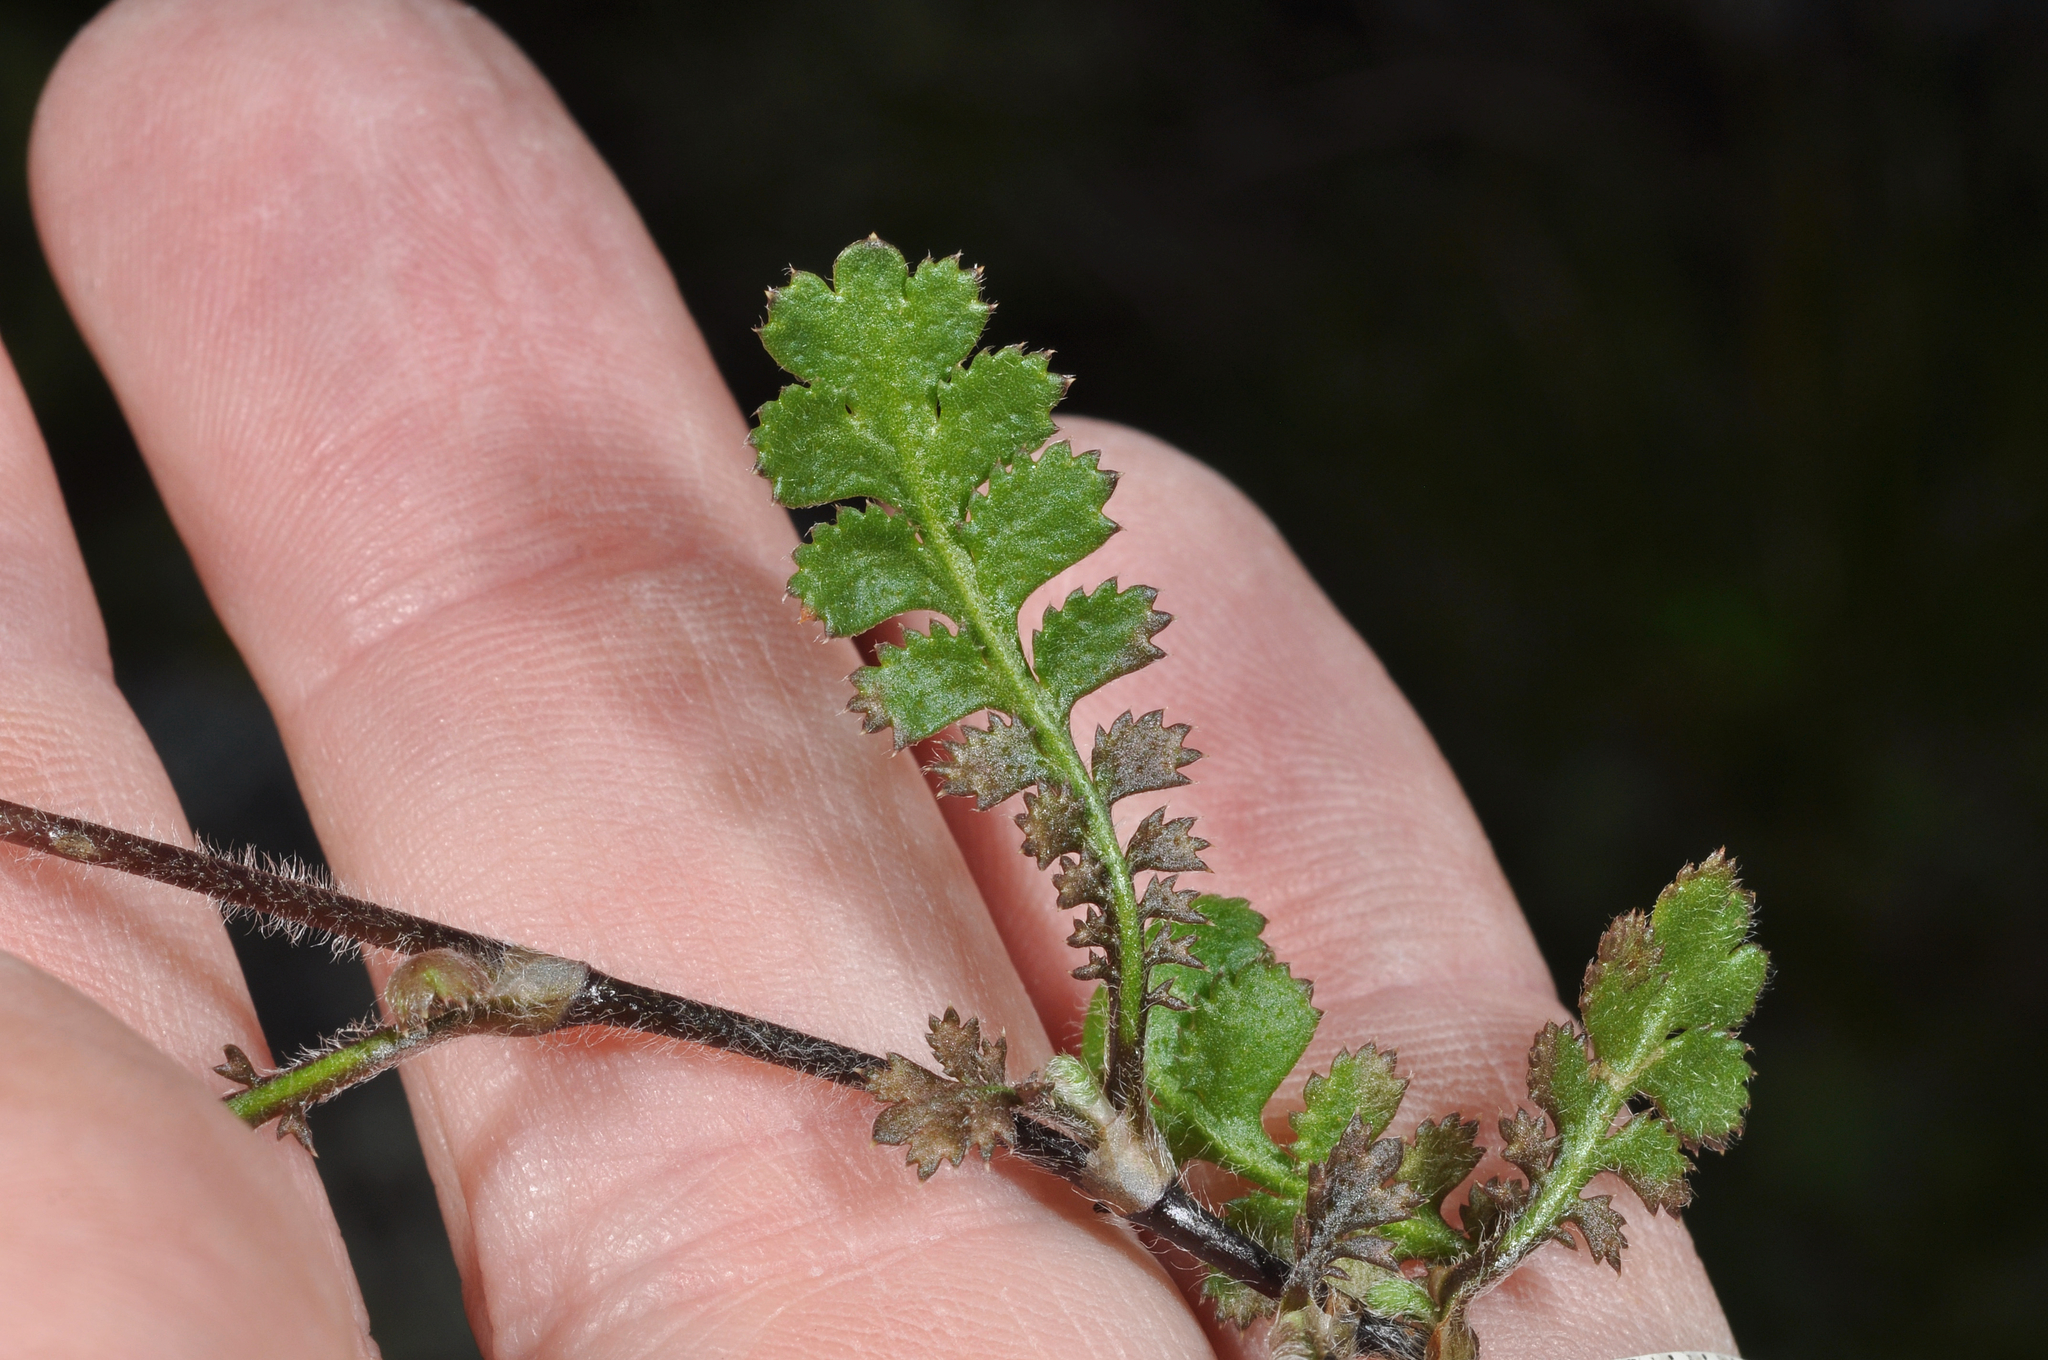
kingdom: Plantae
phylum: Tracheophyta
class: Magnoliopsida
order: Asterales
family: Asteraceae
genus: Leptinella
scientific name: Leptinella traillii
